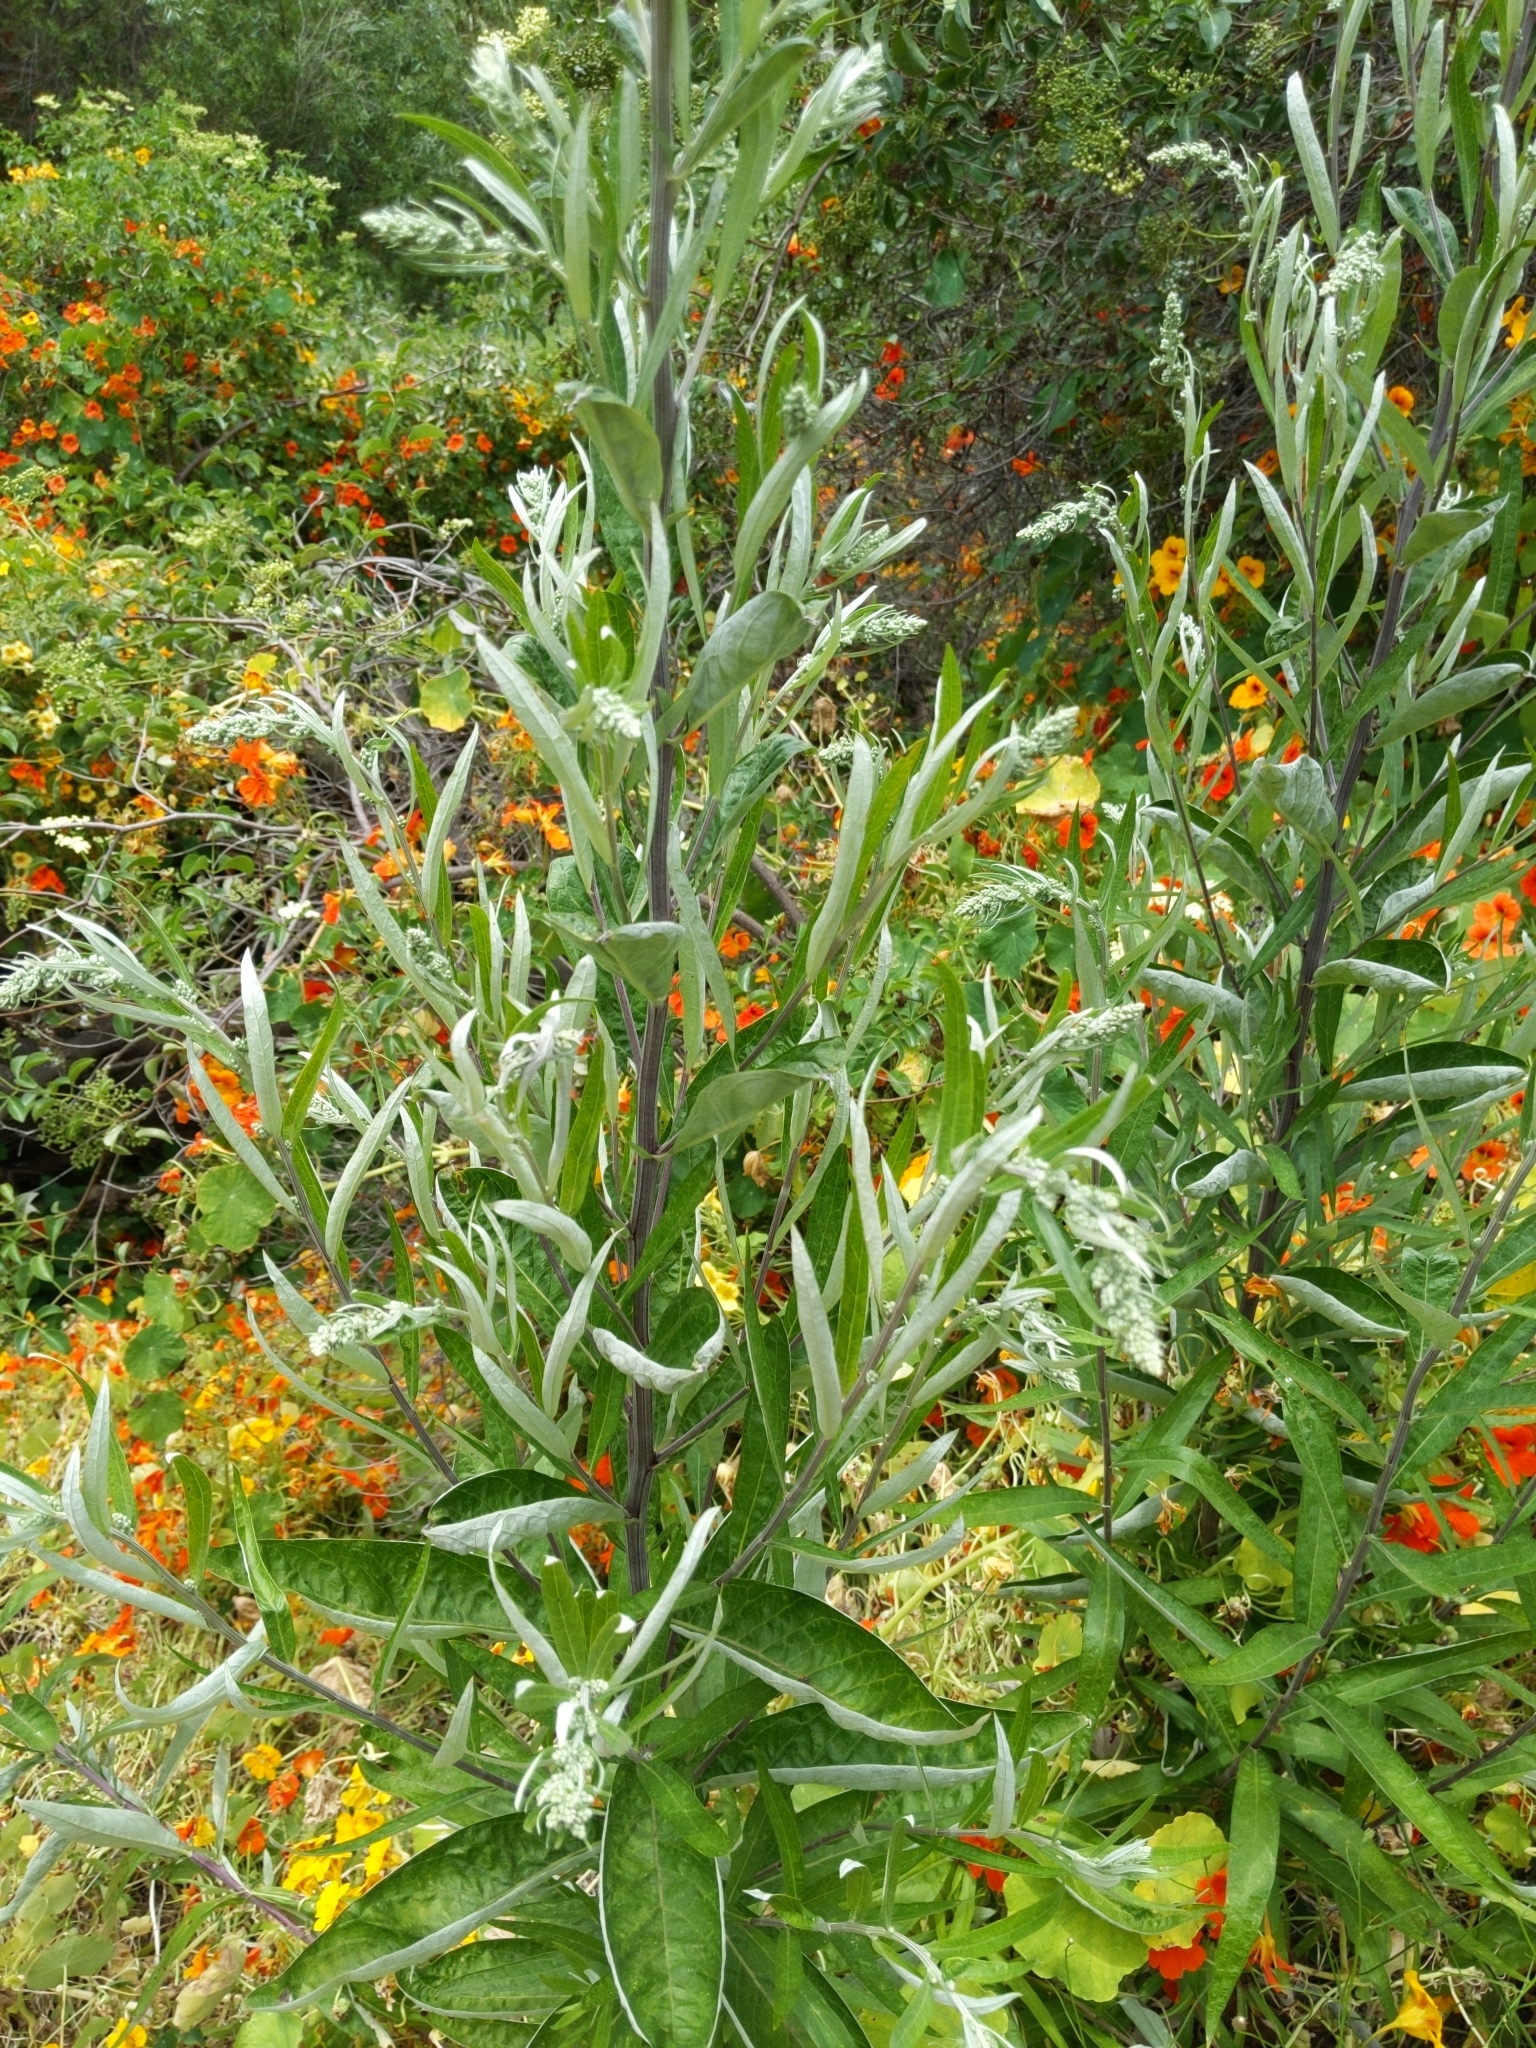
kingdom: Plantae
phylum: Tracheophyta
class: Magnoliopsida
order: Asterales
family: Asteraceae
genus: Artemisia
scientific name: Artemisia douglasiana
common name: Northwest mugwort
